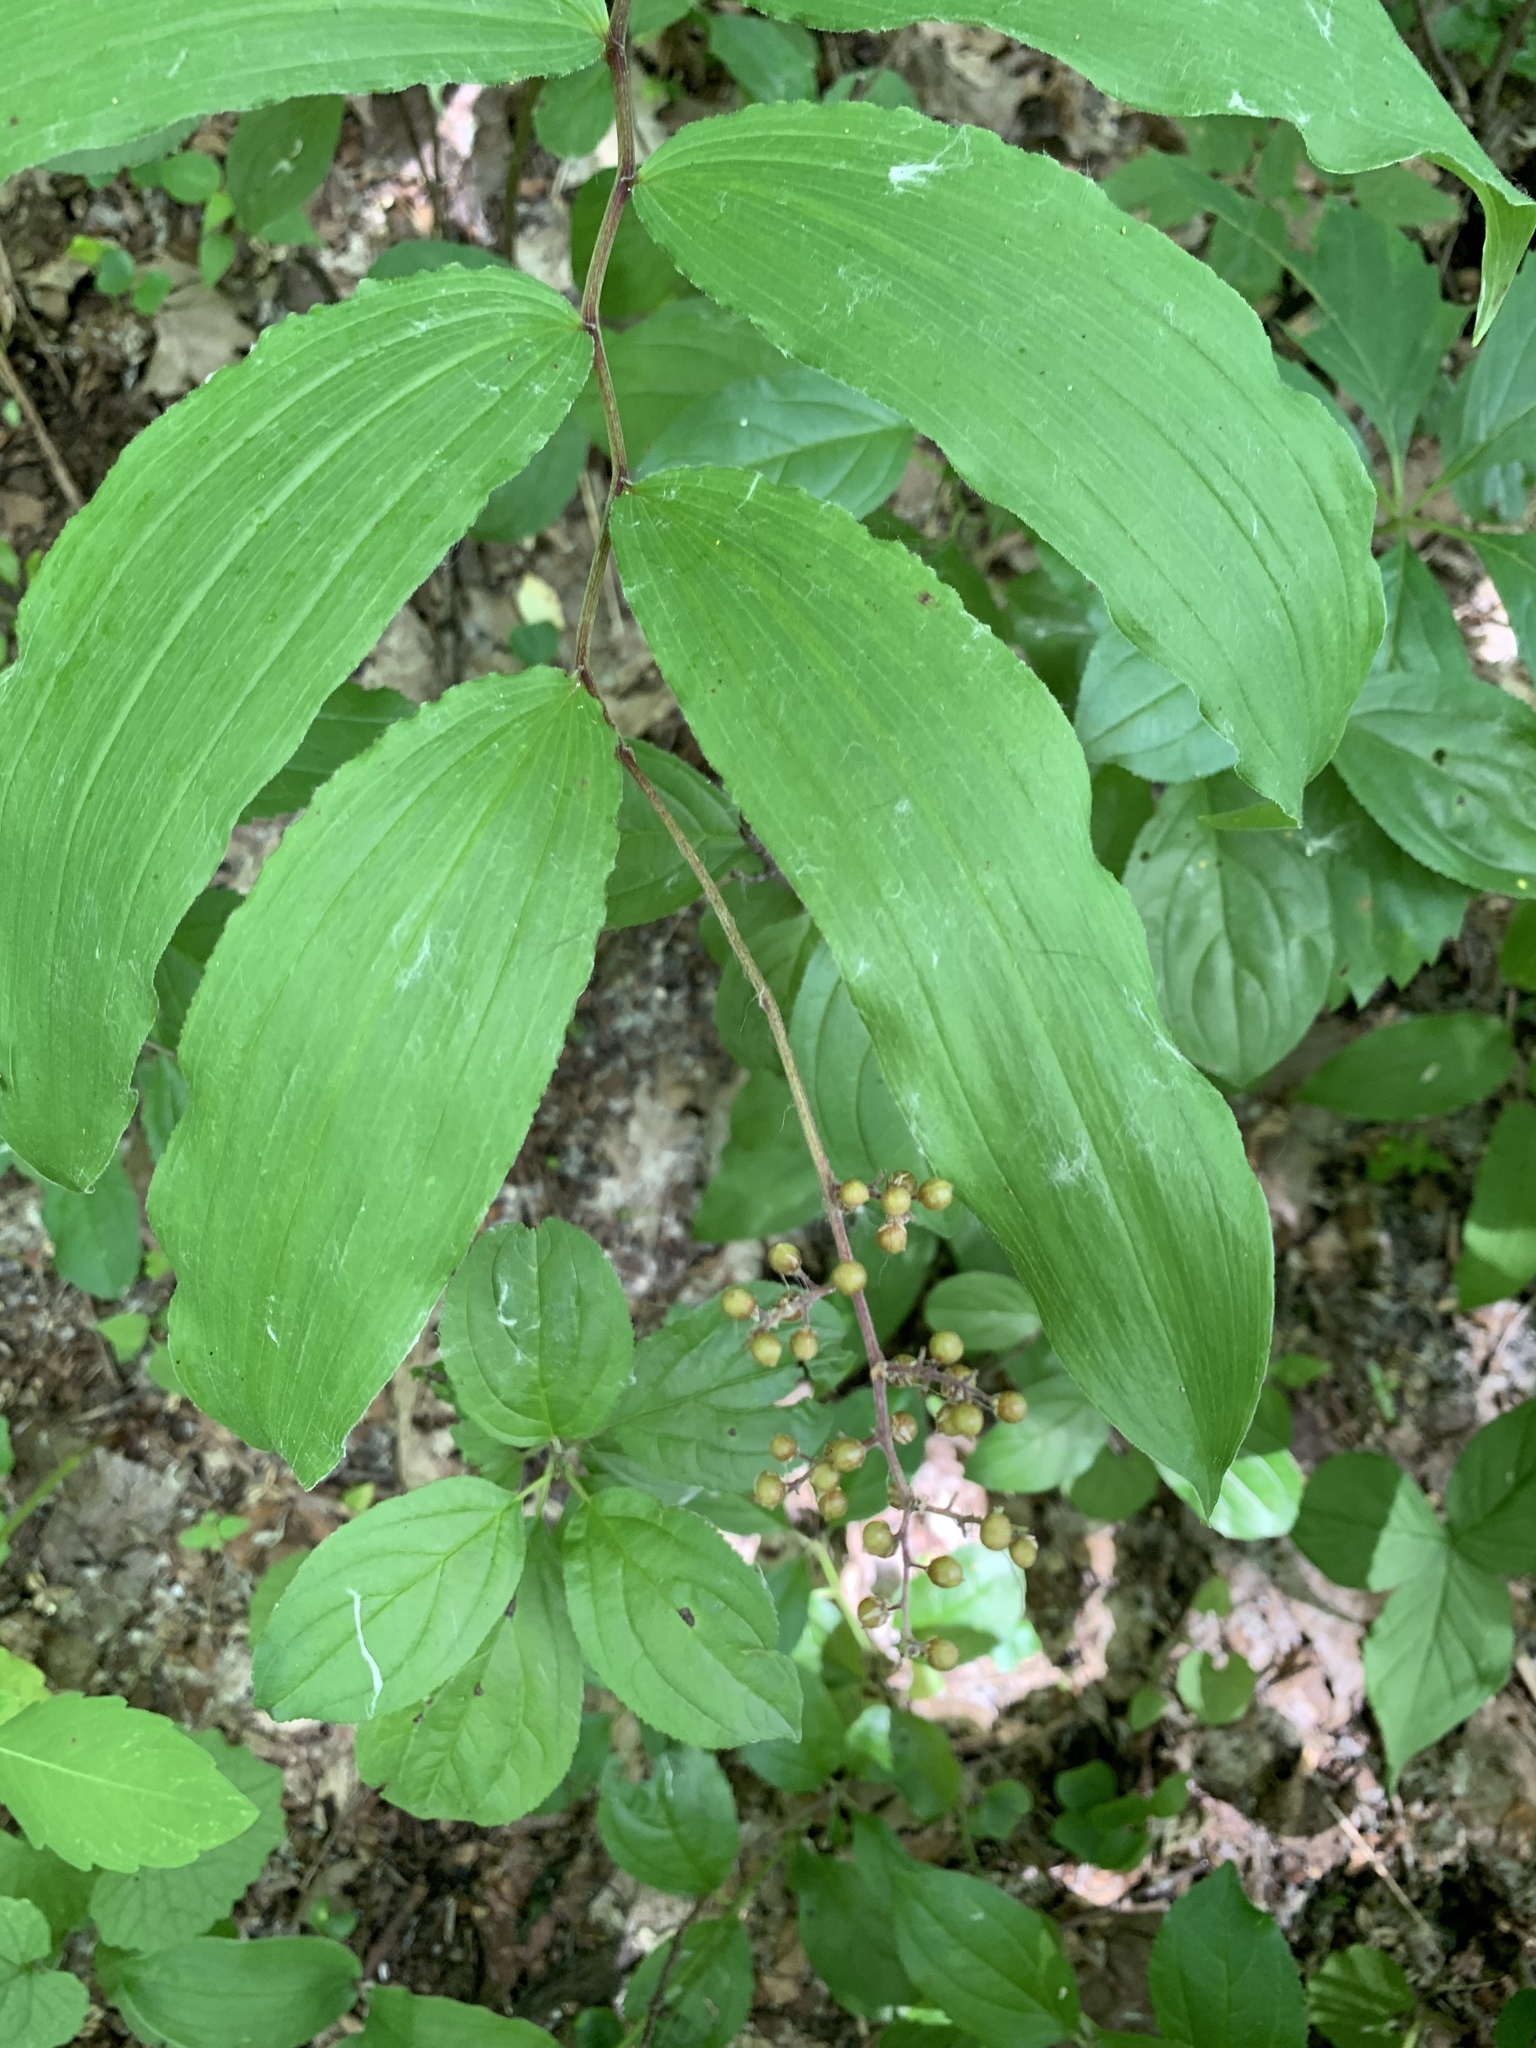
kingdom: Plantae
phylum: Tracheophyta
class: Liliopsida
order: Asparagales
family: Asparagaceae
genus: Maianthemum
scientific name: Maianthemum racemosum
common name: False spikenard
